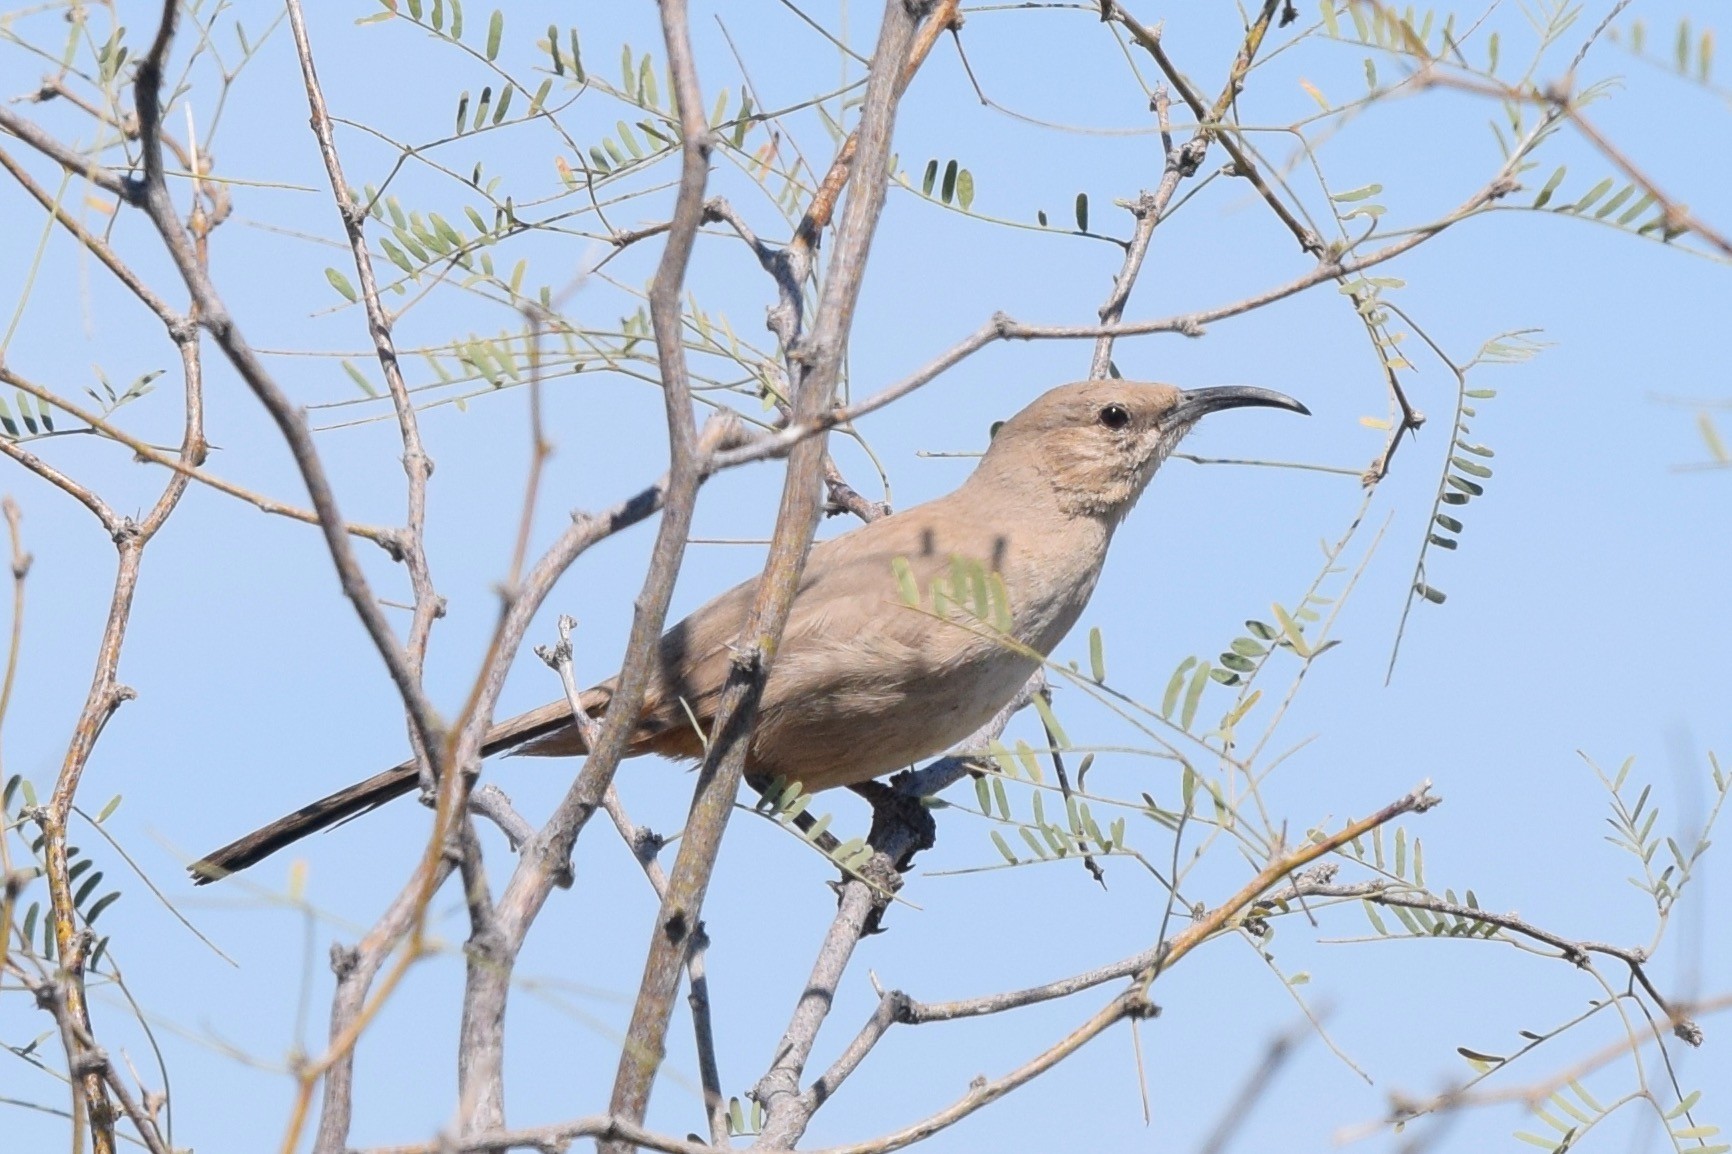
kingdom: Animalia
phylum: Chordata
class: Aves
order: Passeriformes
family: Mimidae
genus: Toxostoma
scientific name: Toxostoma lecontei
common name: Le conte's thrasher
